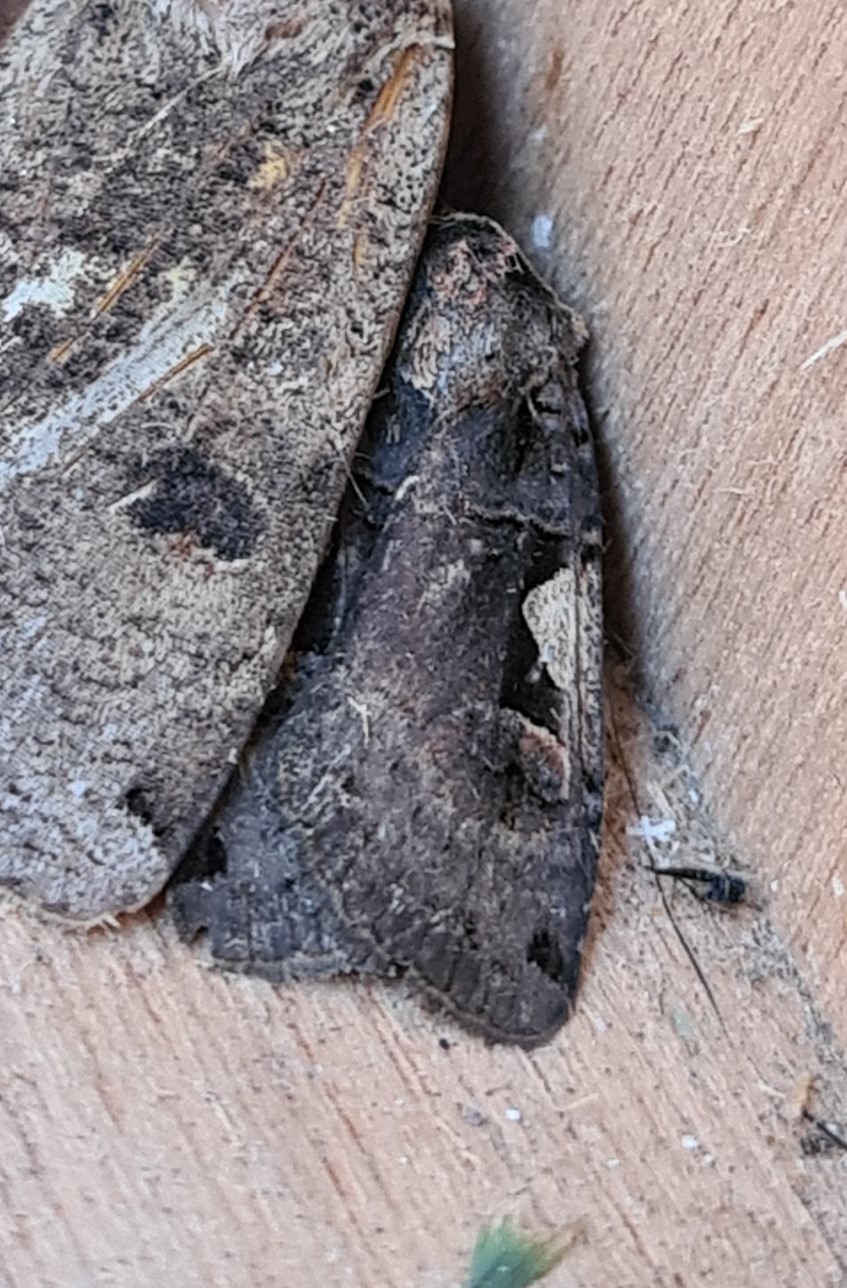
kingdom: Animalia
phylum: Arthropoda
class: Insecta
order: Lepidoptera
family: Noctuidae
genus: Xestia
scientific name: Xestia c-nigrum
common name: Setaceous hebrew character
